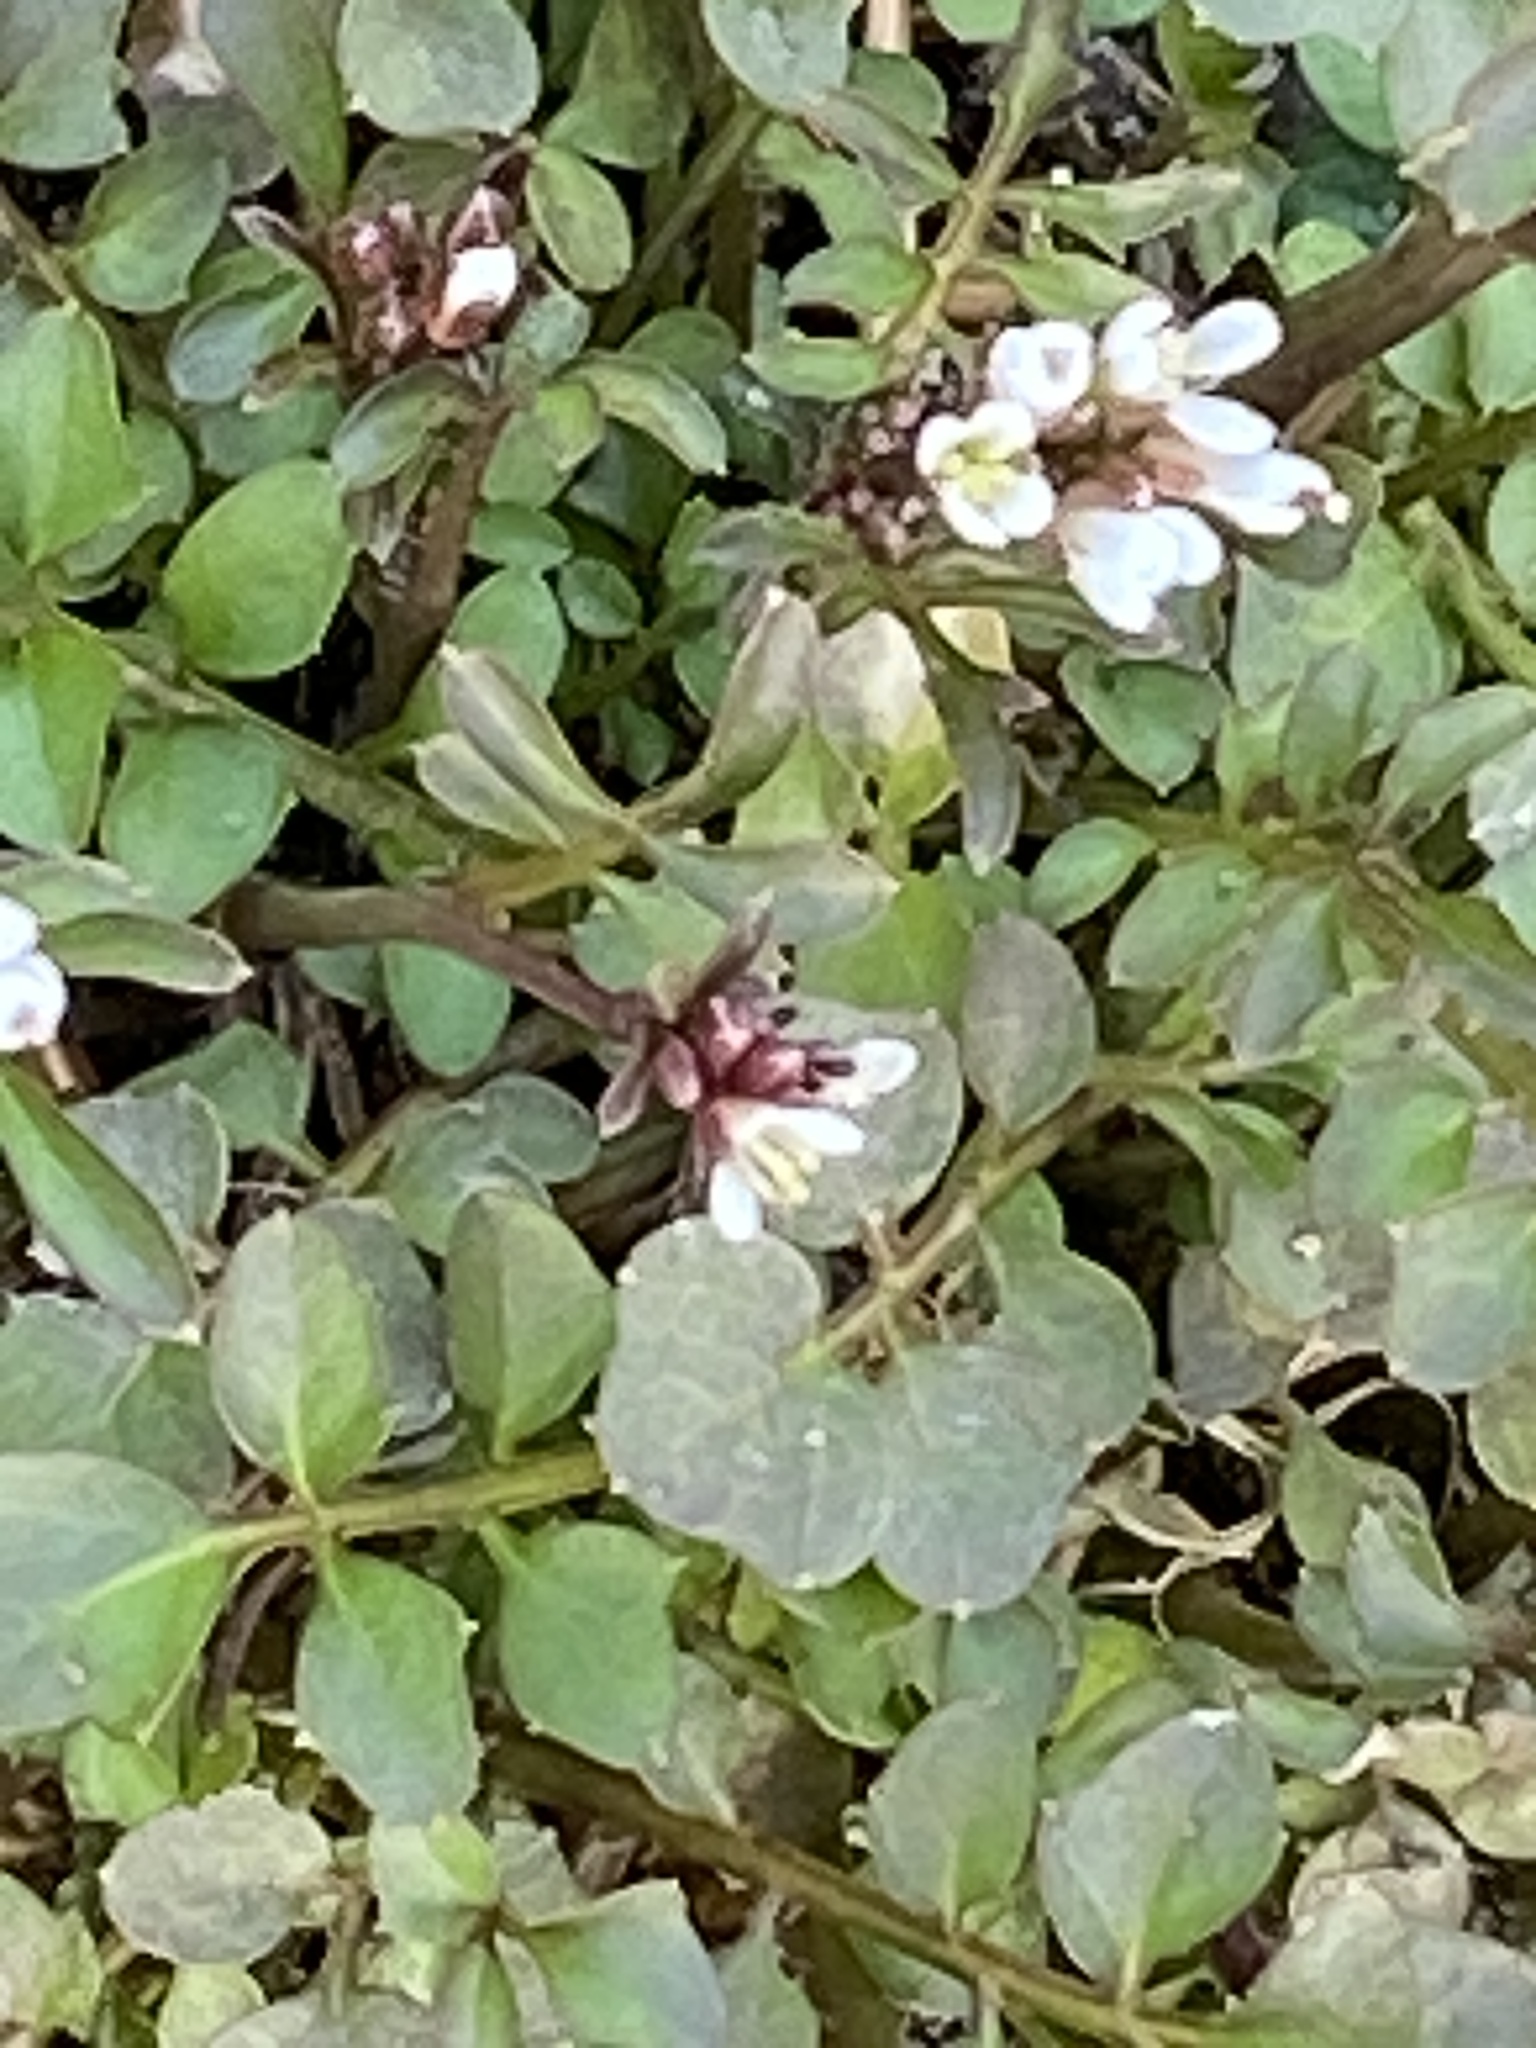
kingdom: Plantae
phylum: Tracheophyta
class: Magnoliopsida
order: Brassicales
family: Brassicaceae
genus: Cardamine
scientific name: Cardamine hirsuta
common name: Hairy bittercress
